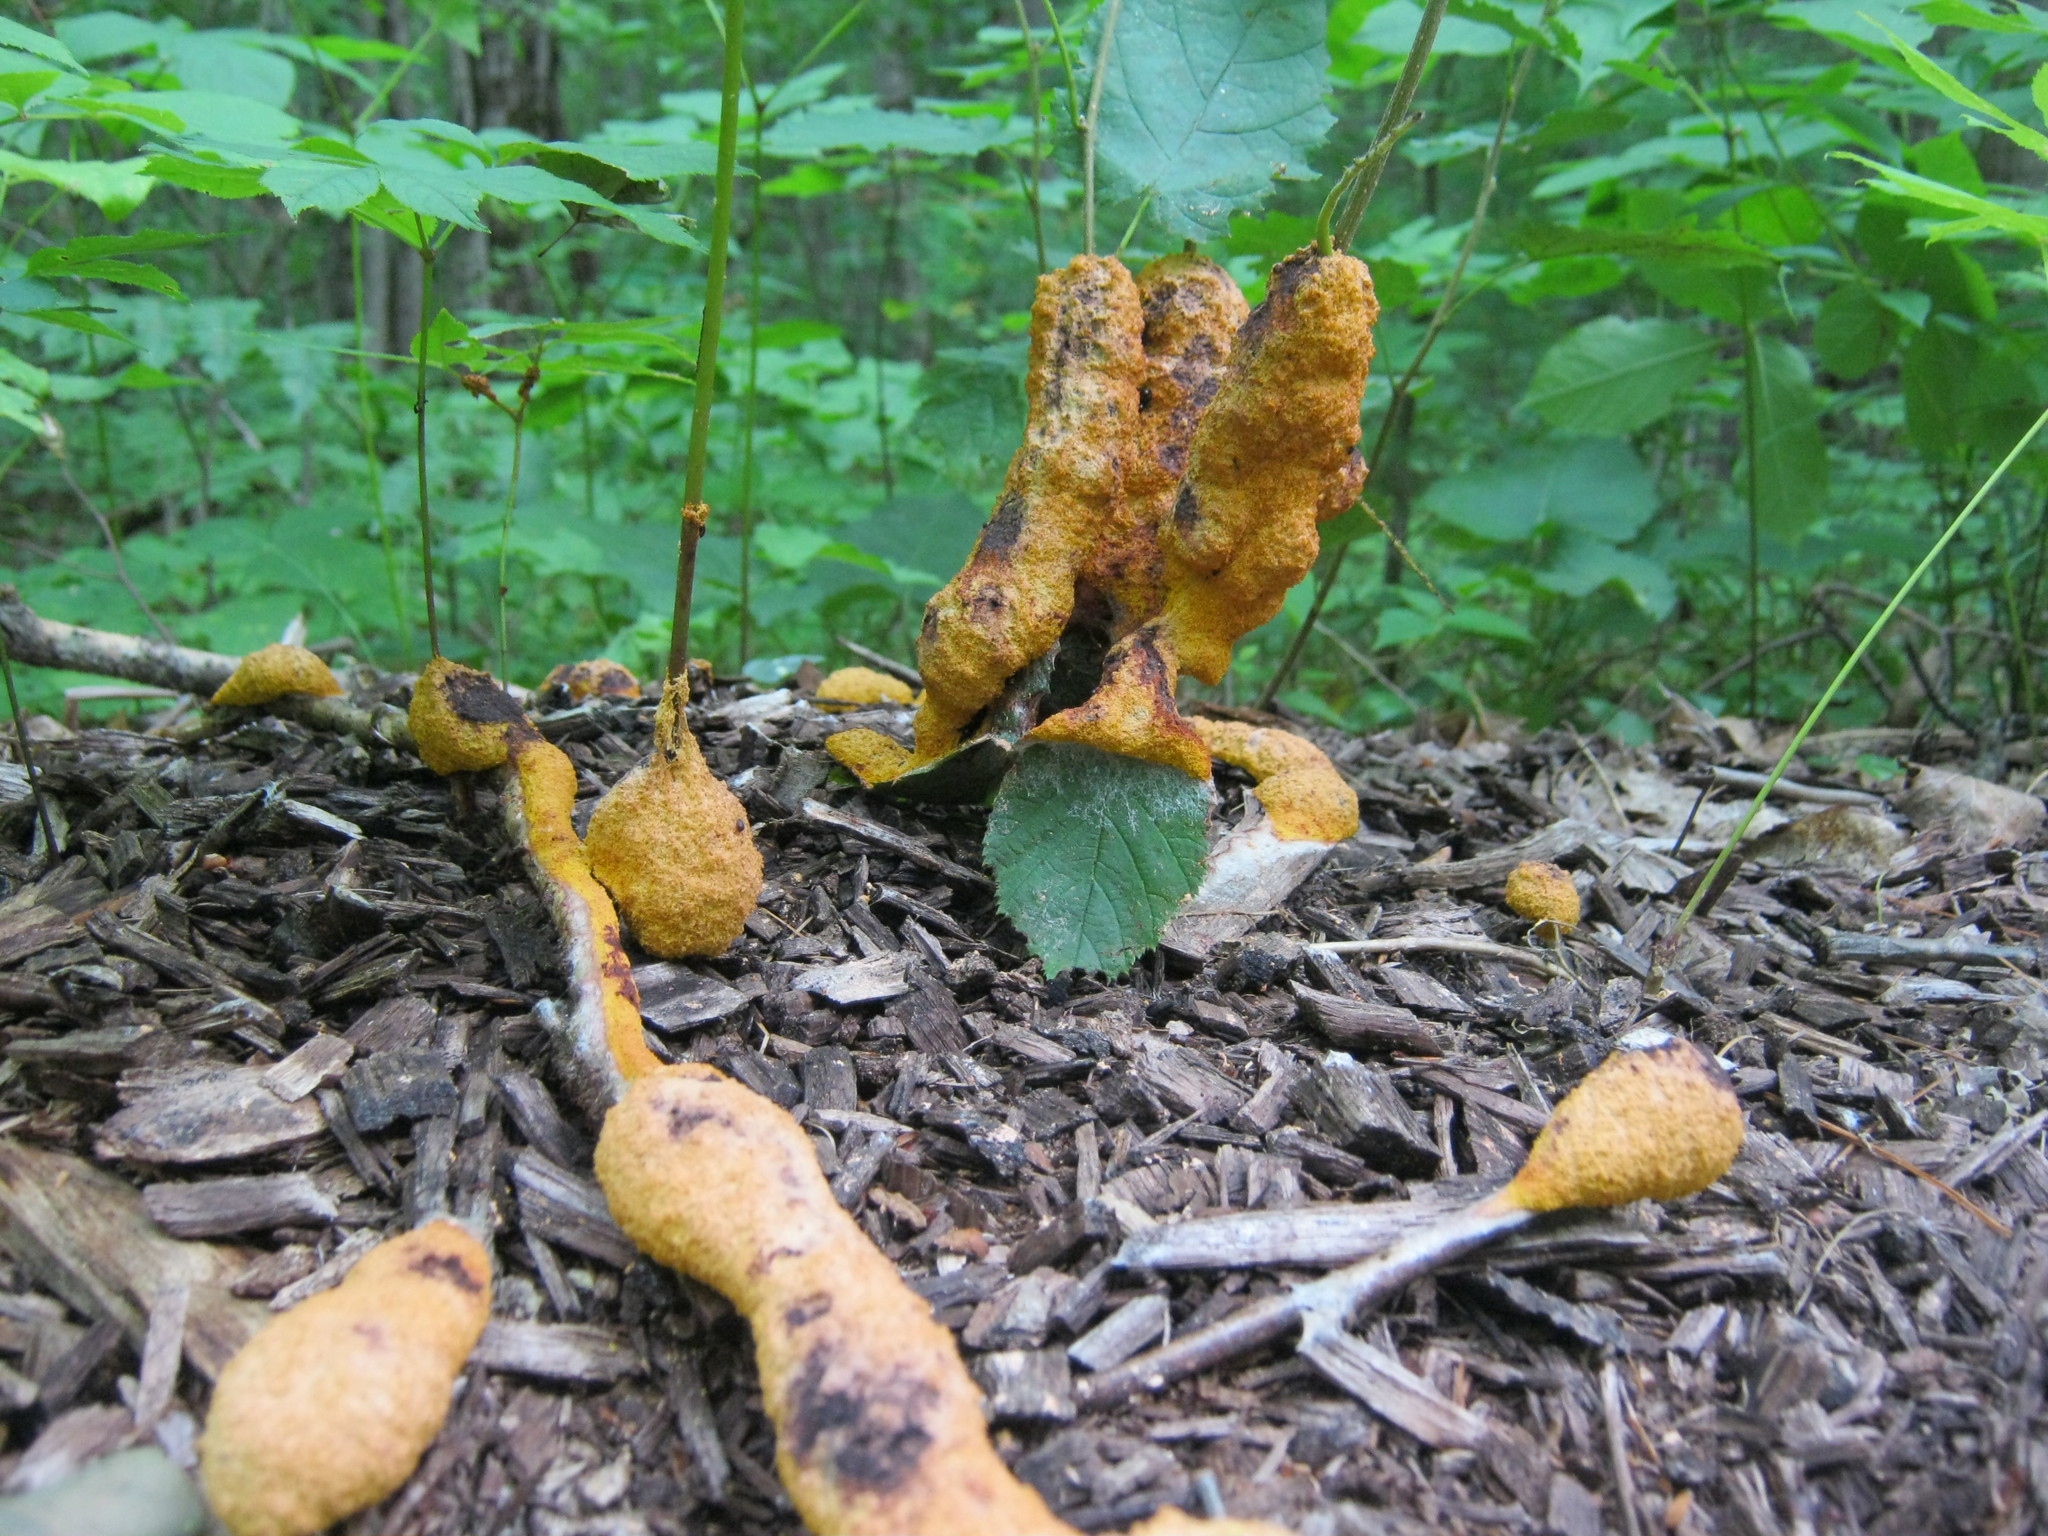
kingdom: Protozoa
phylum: Mycetozoa
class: Myxomycetes
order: Physarales
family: Physaraceae
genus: Fuligo
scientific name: Fuligo septica
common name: Dog vomit slime mold
